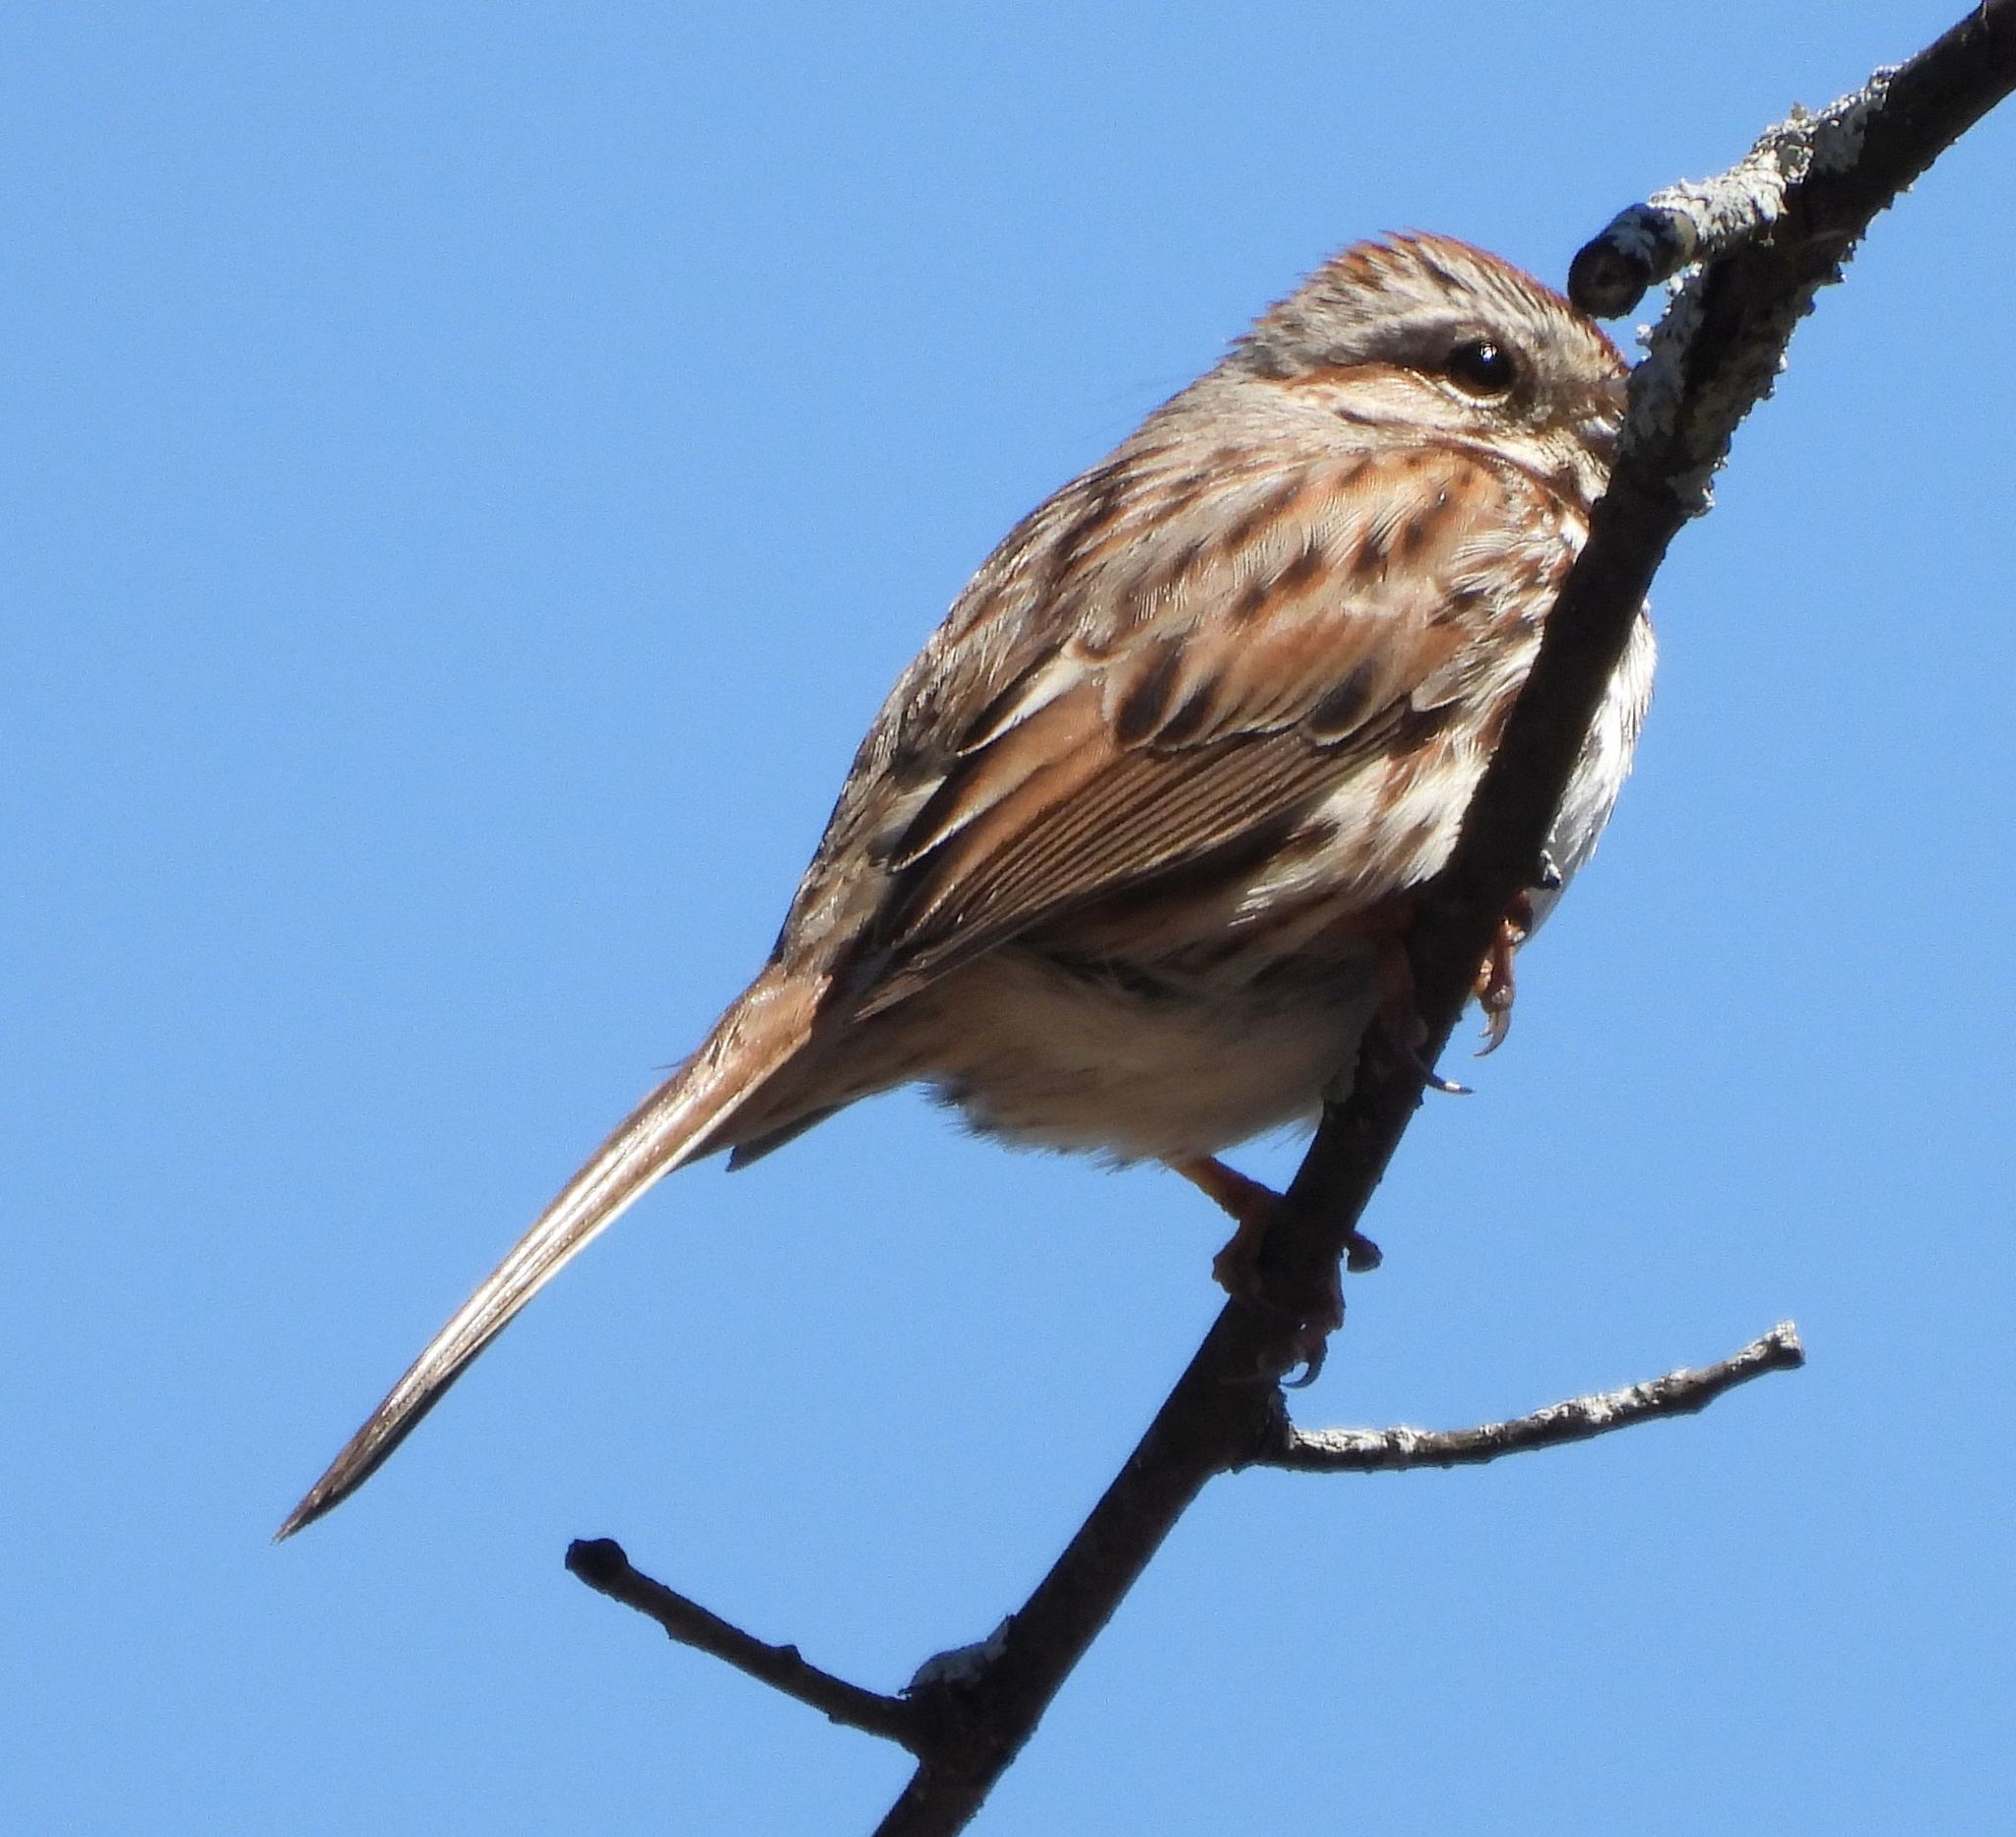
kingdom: Animalia
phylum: Chordata
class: Aves
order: Passeriformes
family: Passerellidae
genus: Melospiza
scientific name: Melospiza melodia
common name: Song sparrow
